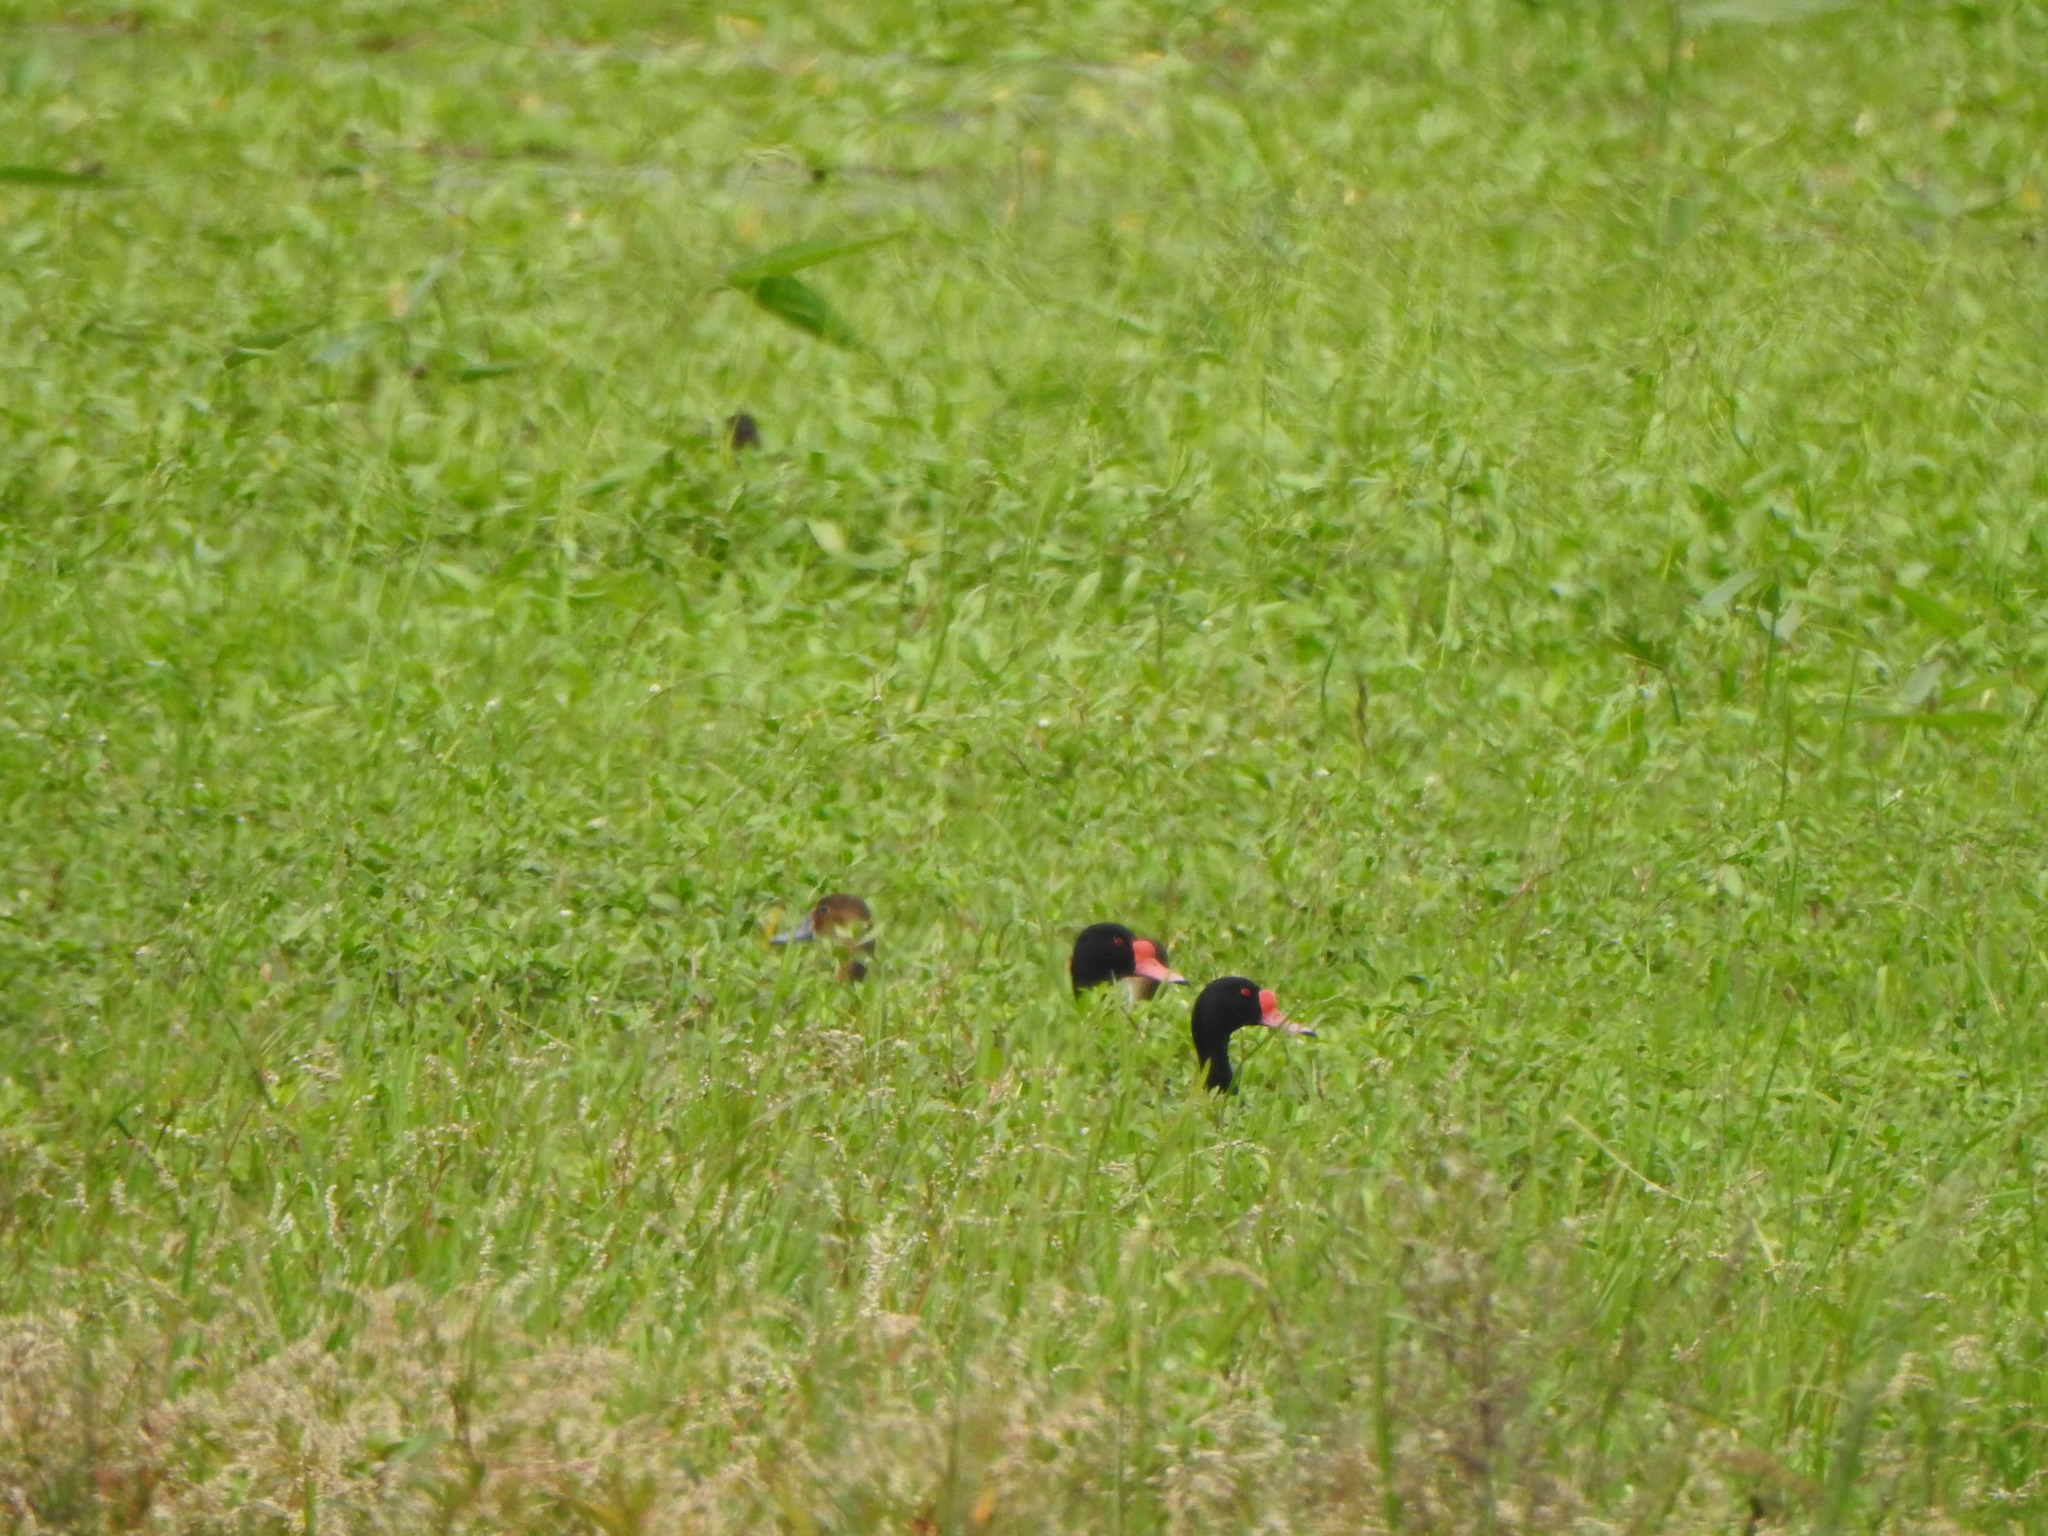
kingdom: Animalia
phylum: Chordata
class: Aves
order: Anseriformes
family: Anatidae
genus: Netta
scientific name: Netta peposaca
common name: Rosy-billed pochard
